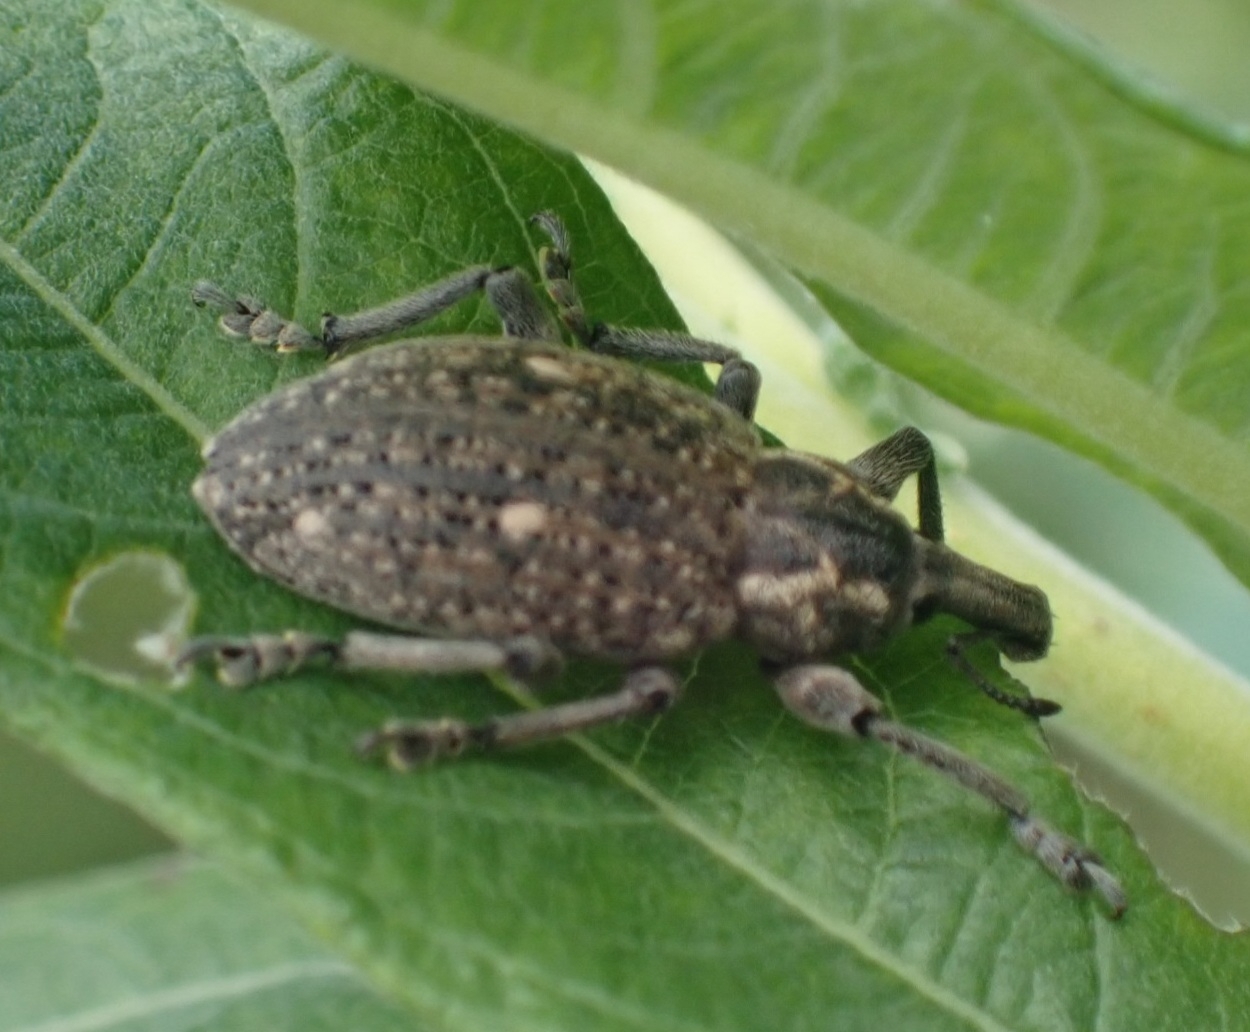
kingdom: Animalia
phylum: Arthropoda
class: Insecta
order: Coleoptera
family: Curculionidae
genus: Lepyrus
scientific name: Lepyrus volgensis
